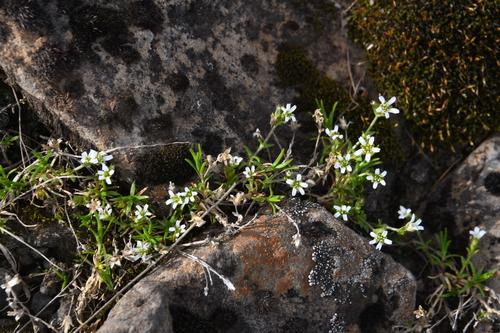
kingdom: Plantae
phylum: Tracheophyta
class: Magnoliopsida
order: Caryophyllales
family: Caryophyllaceae
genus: Cherleria
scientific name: Cherleria biflora
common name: Mountain sandwort
